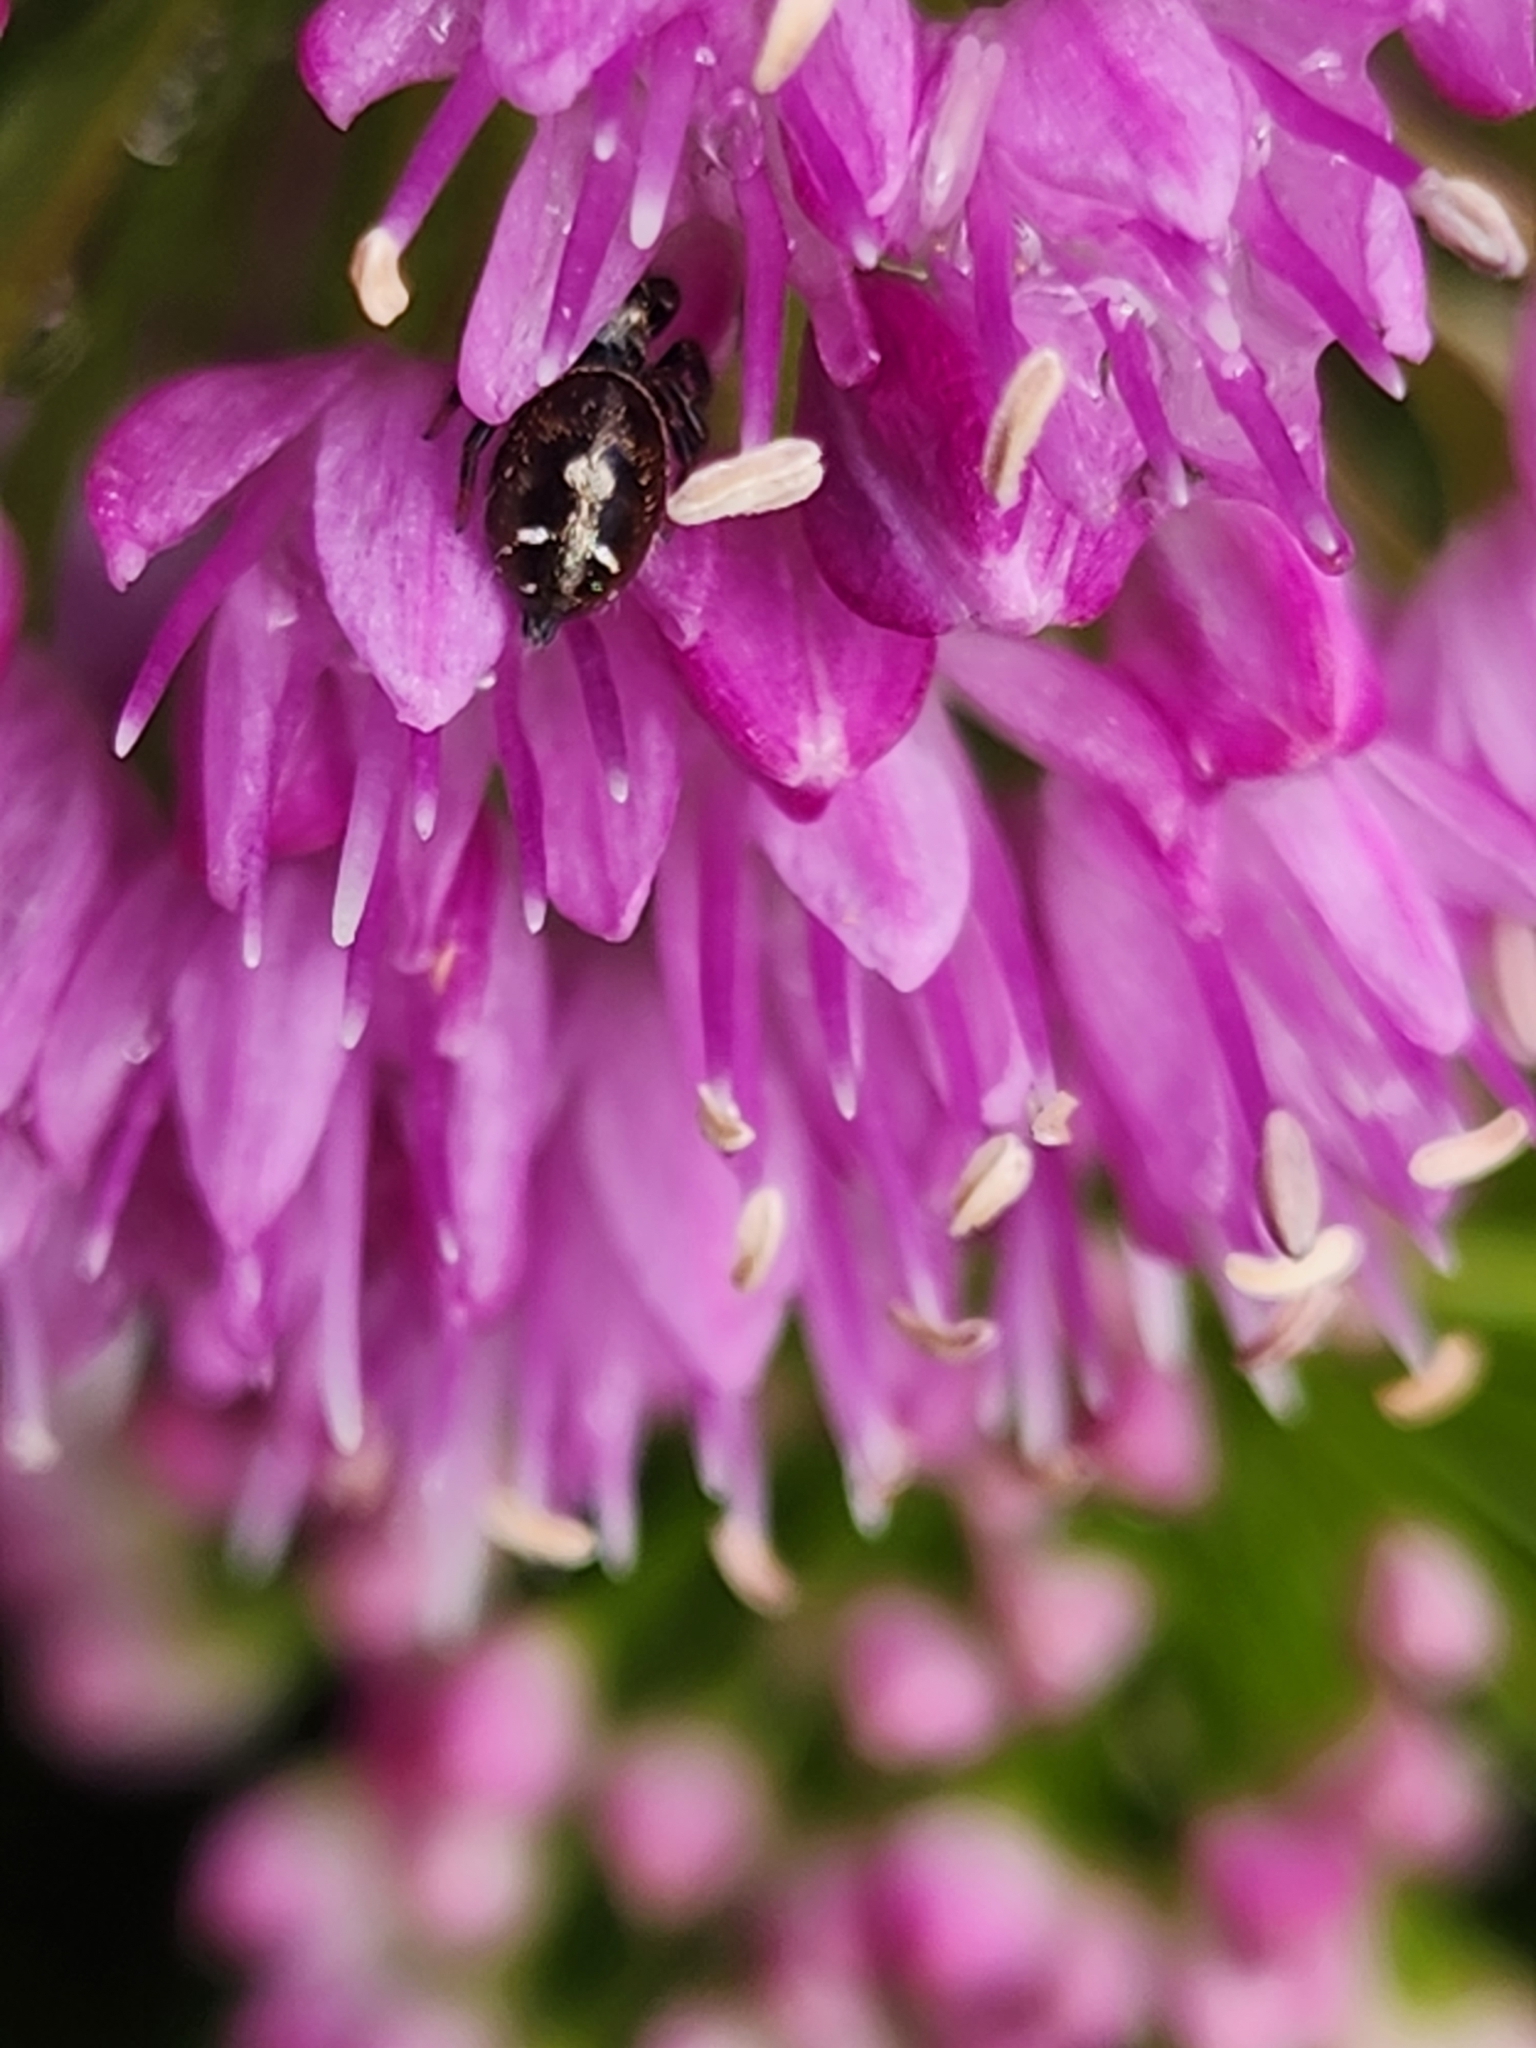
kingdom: Animalia
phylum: Arthropoda
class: Arachnida
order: Araneae
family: Salticidae
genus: Phidippus
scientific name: Phidippus audax
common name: Bold jumper
